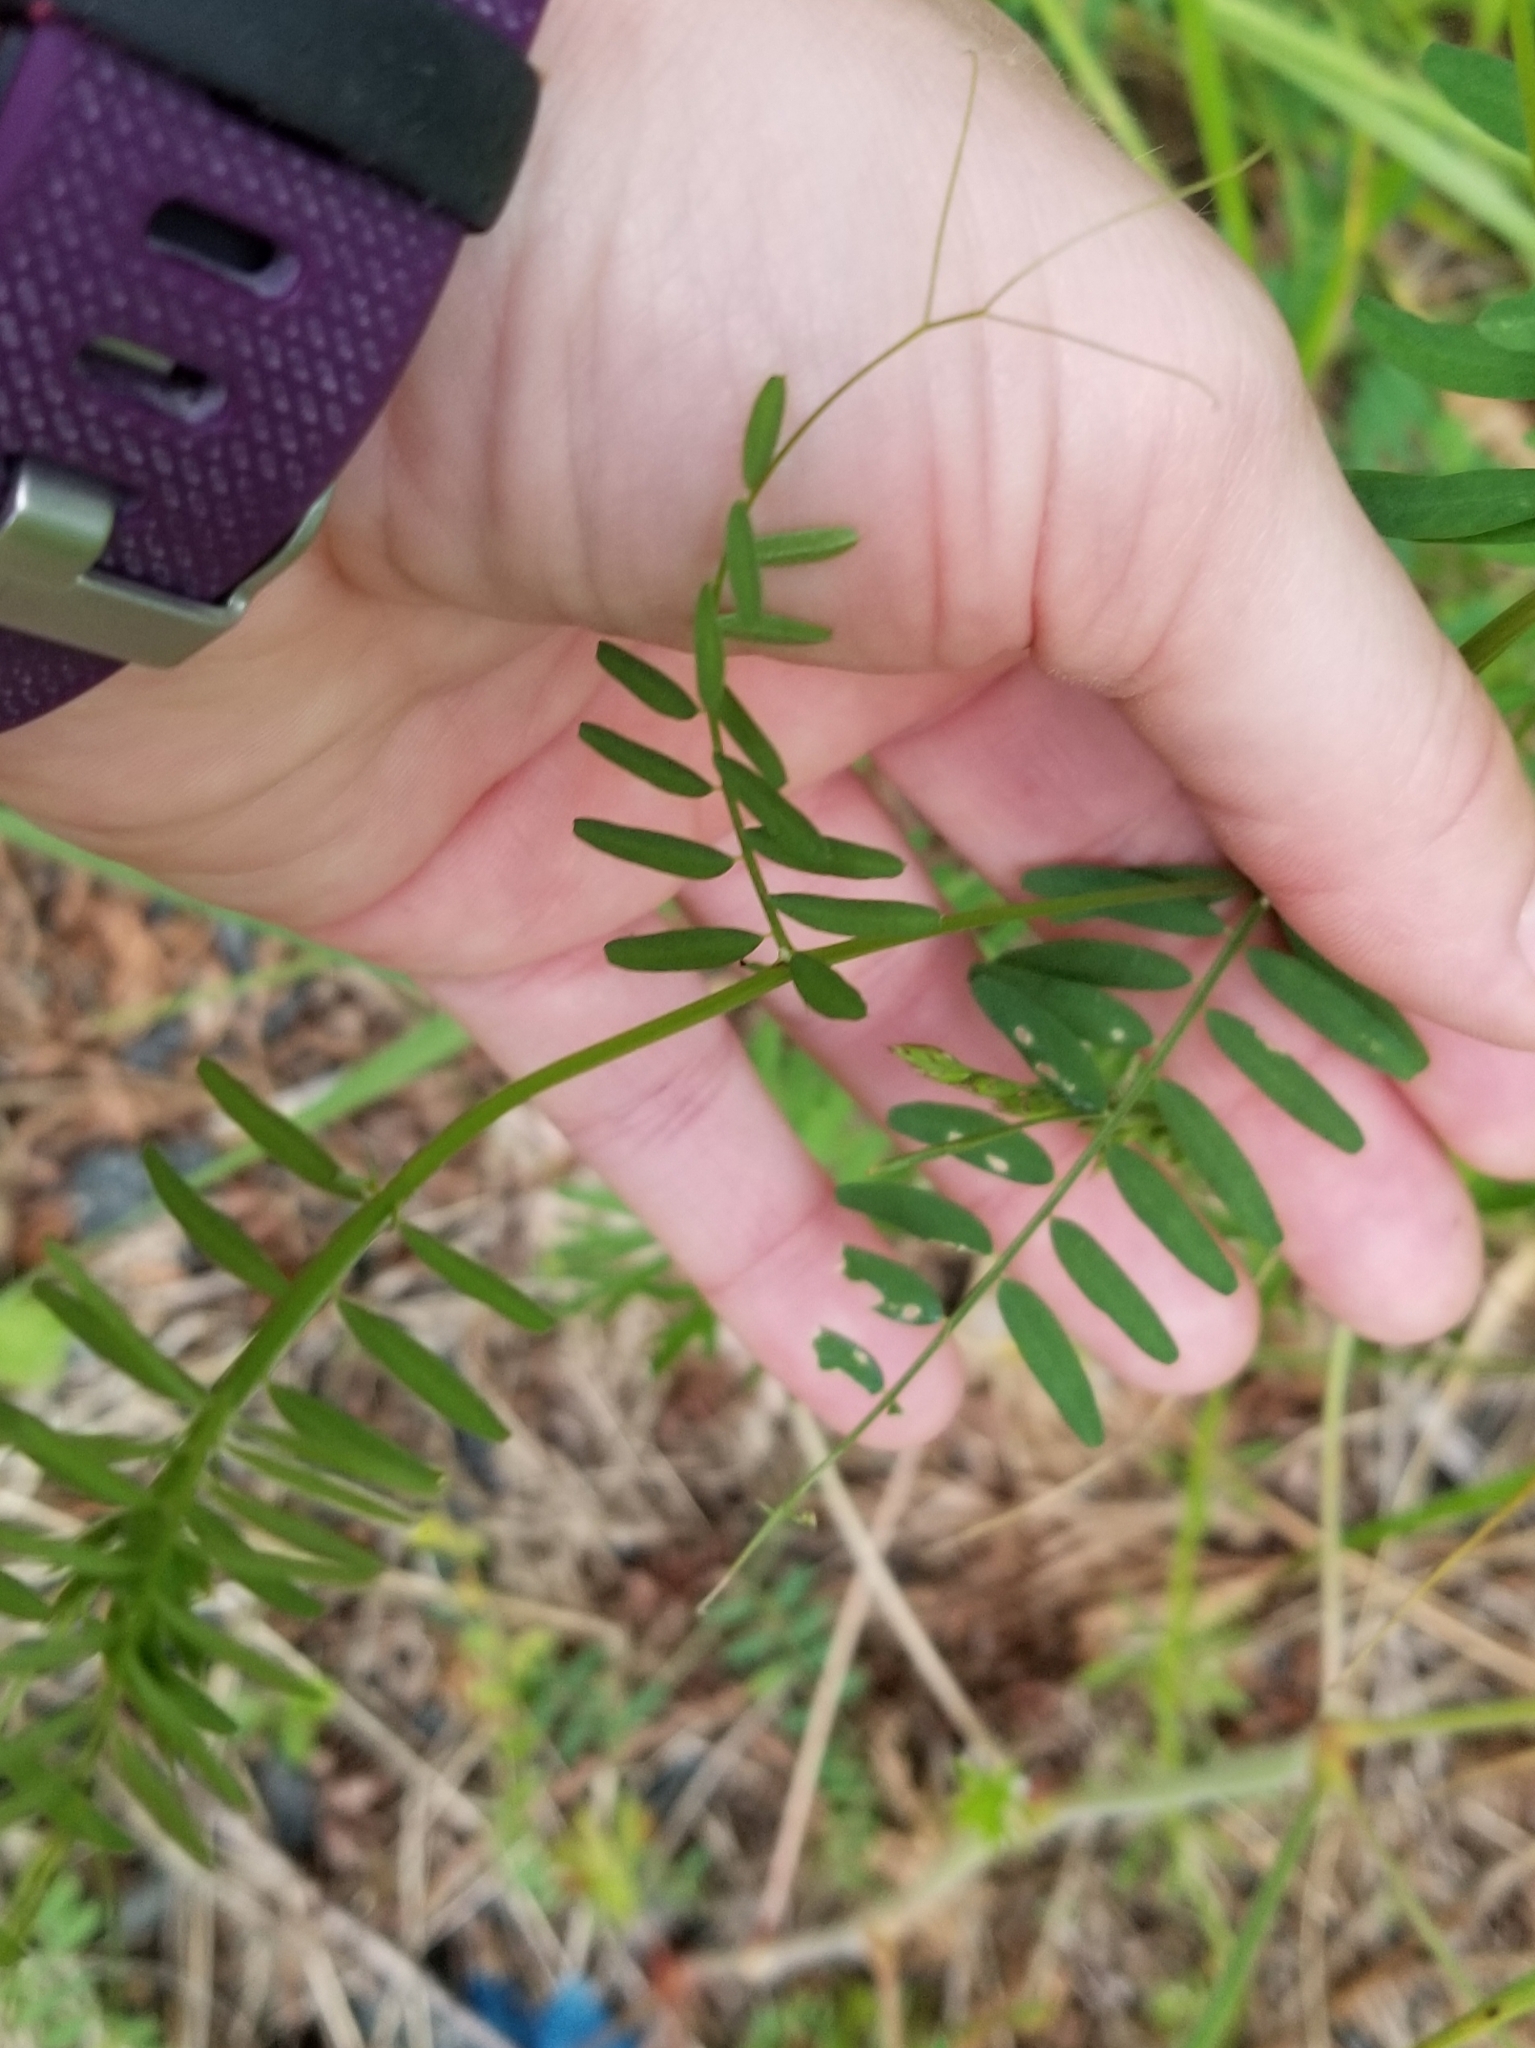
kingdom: Plantae
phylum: Tracheophyta
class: Magnoliopsida
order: Fabales
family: Fabaceae
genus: Vicia
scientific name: Vicia sativa
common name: Garden vetch
